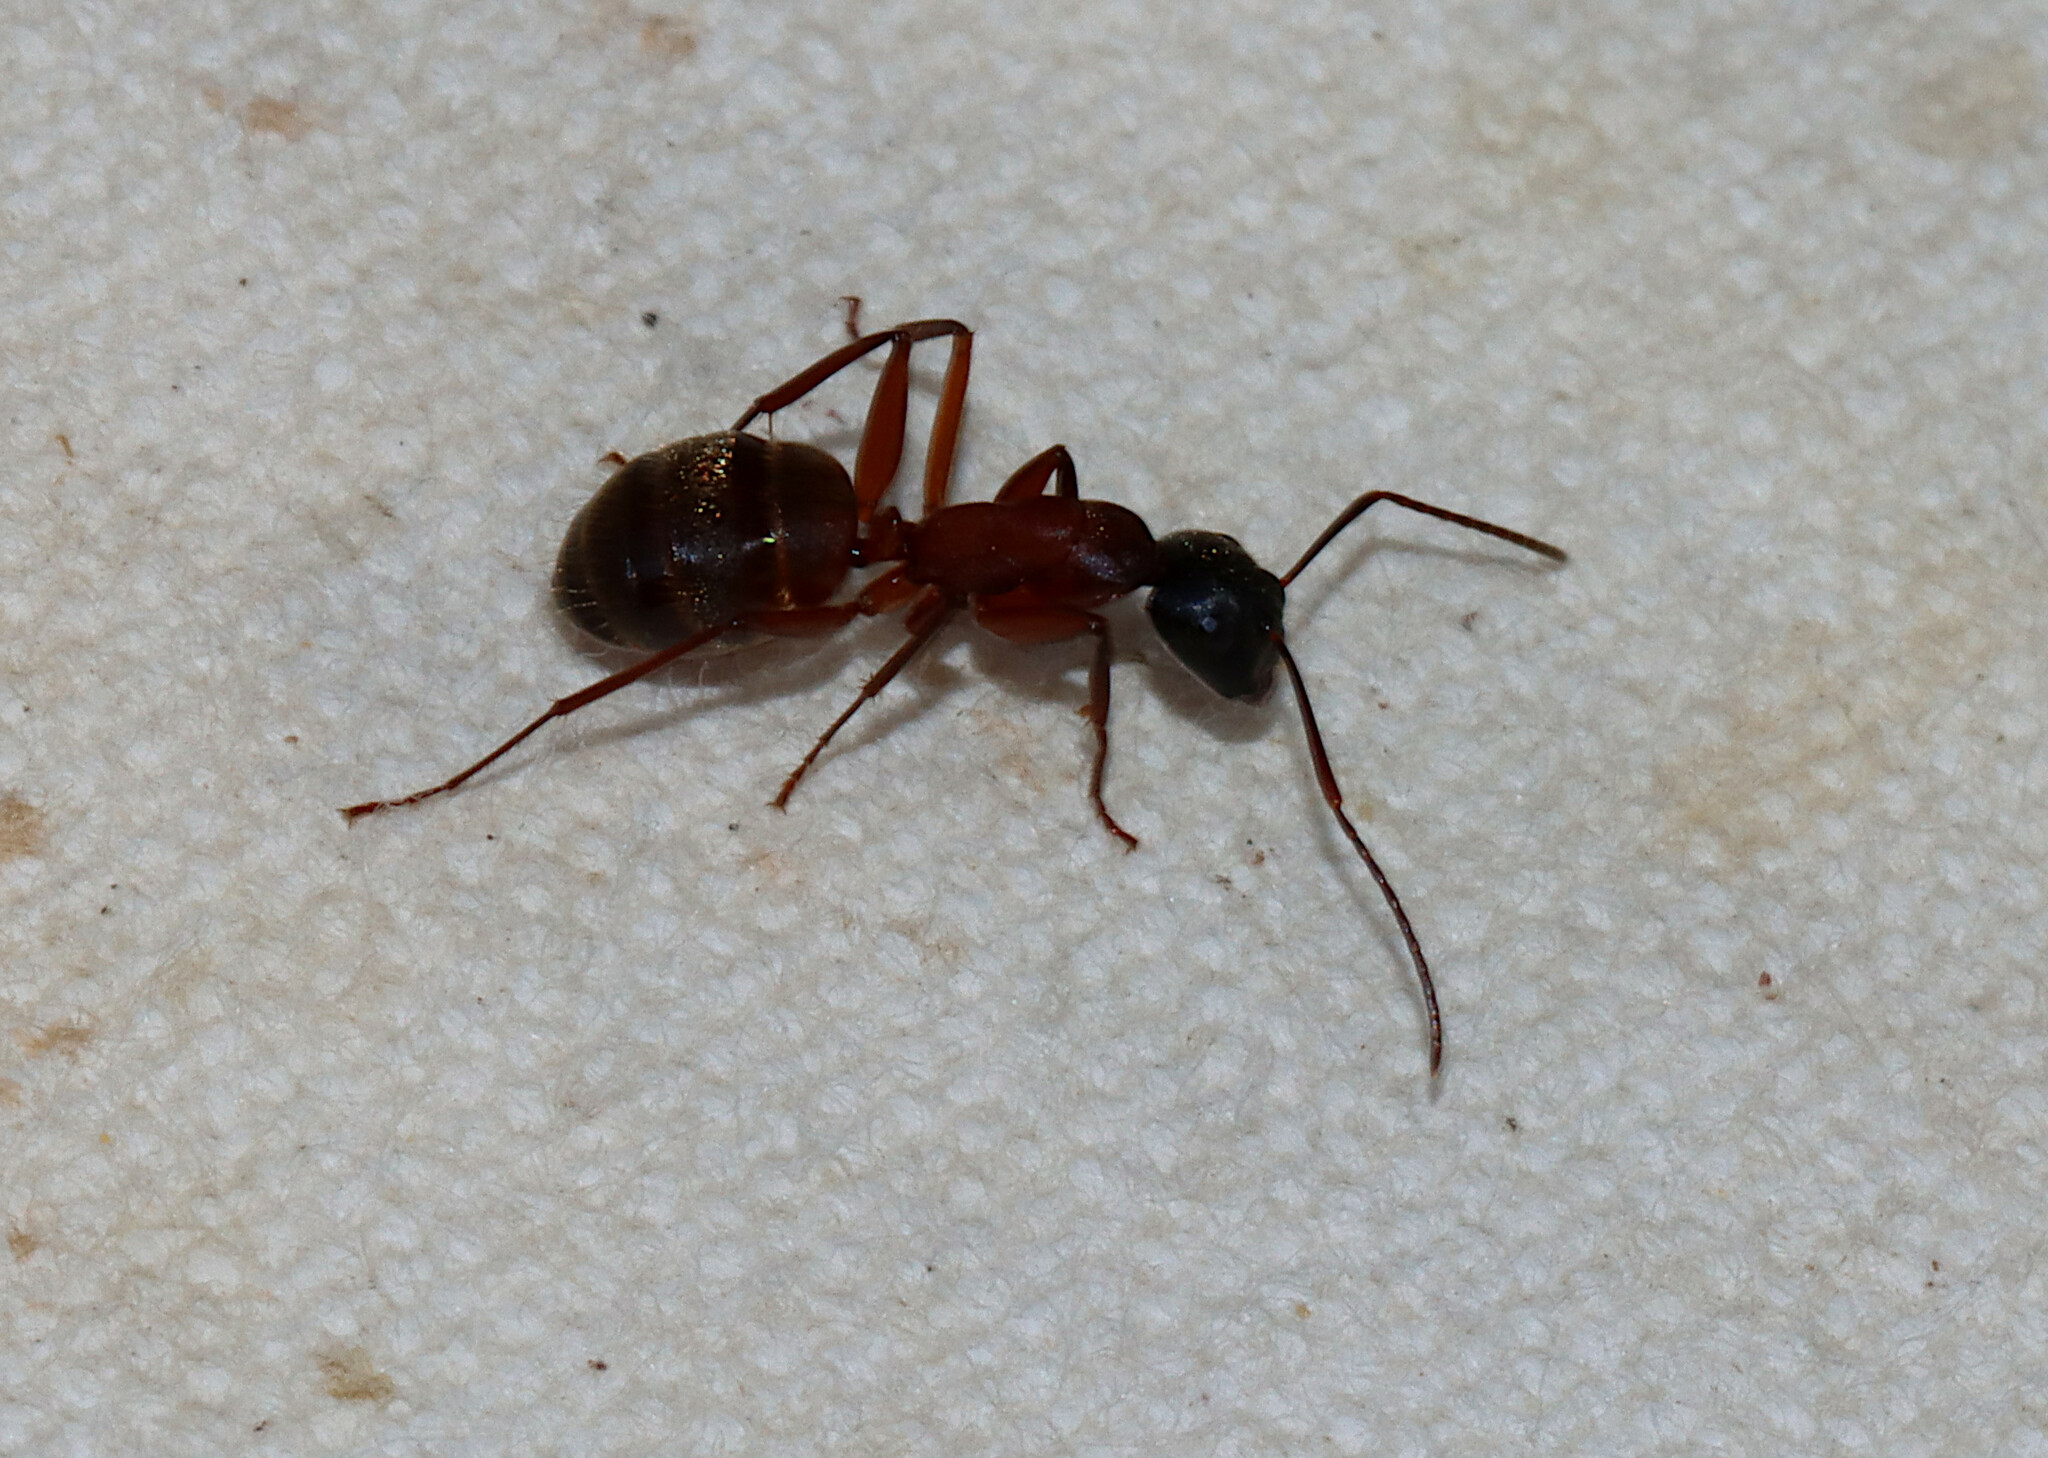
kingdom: Animalia
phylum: Arthropoda
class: Insecta
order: Hymenoptera
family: Formicidae
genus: Camponotus
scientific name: Camponotus chromaiodes
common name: Red carpenter ant
